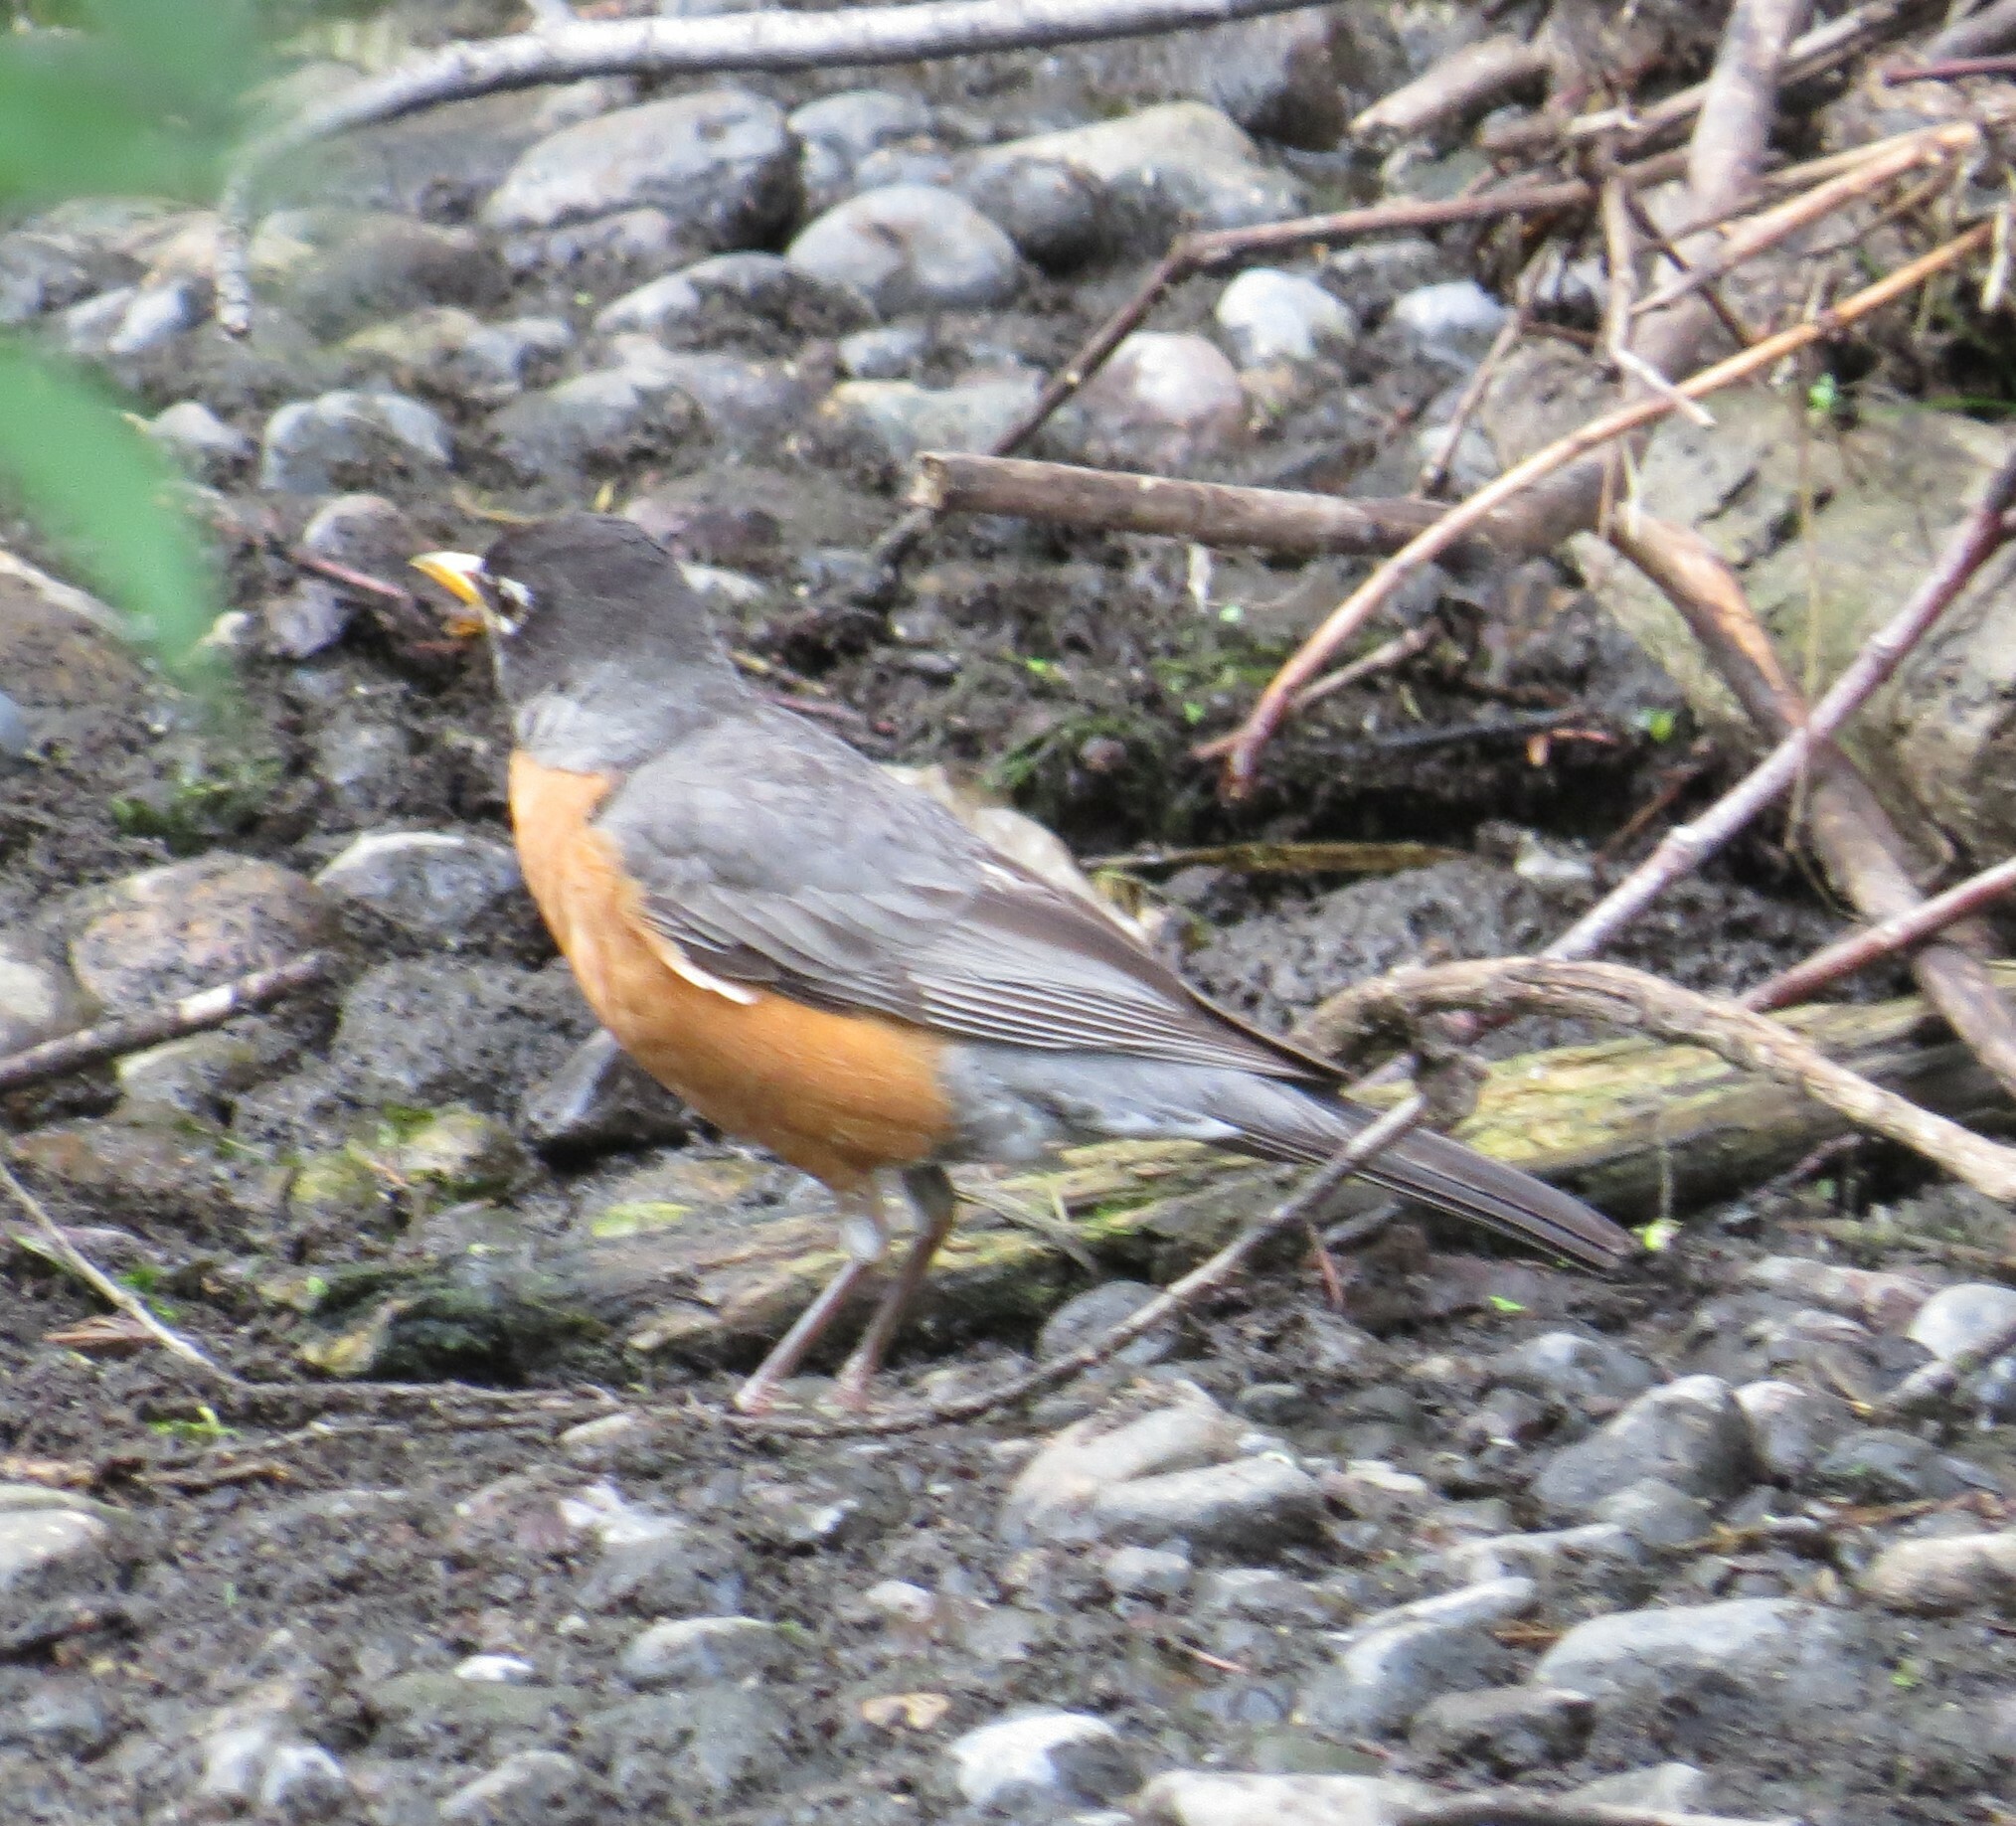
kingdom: Animalia
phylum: Chordata
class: Aves
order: Passeriformes
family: Turdidae
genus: Turdus
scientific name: Turdus migratorius
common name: American robin
